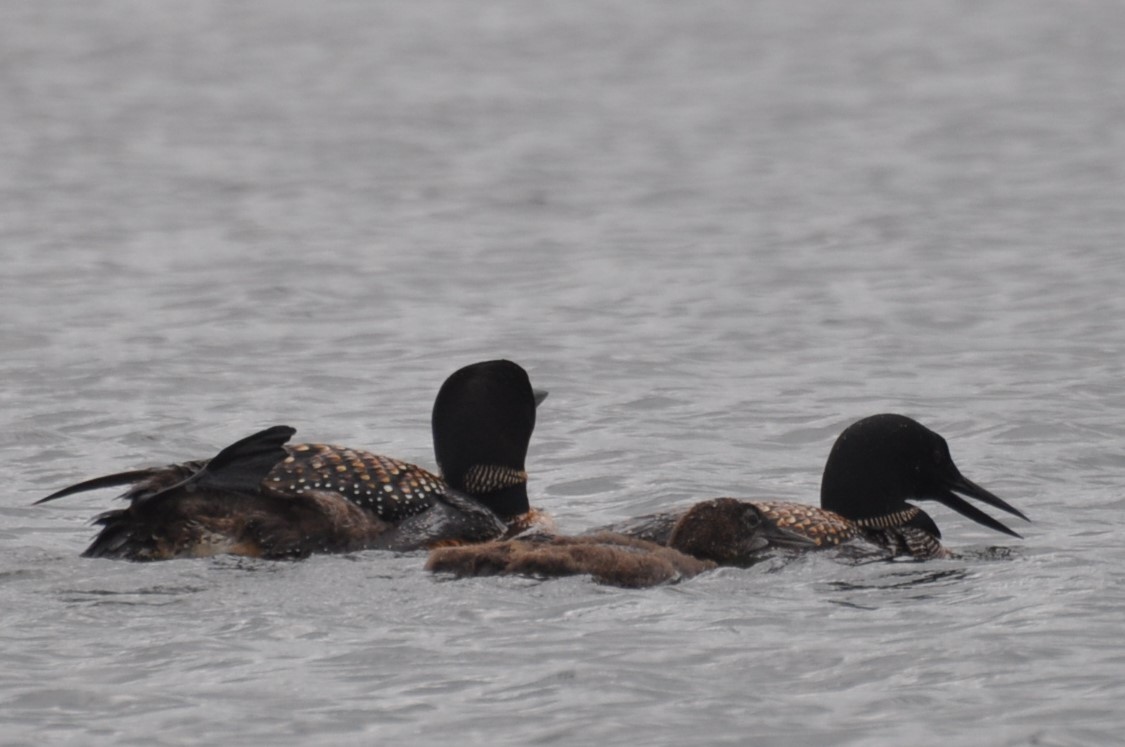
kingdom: Animalia
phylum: Chordata
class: Aves
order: Gaviiformes
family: Gaviidae
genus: Gavia
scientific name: Gavia immer
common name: Common loon
